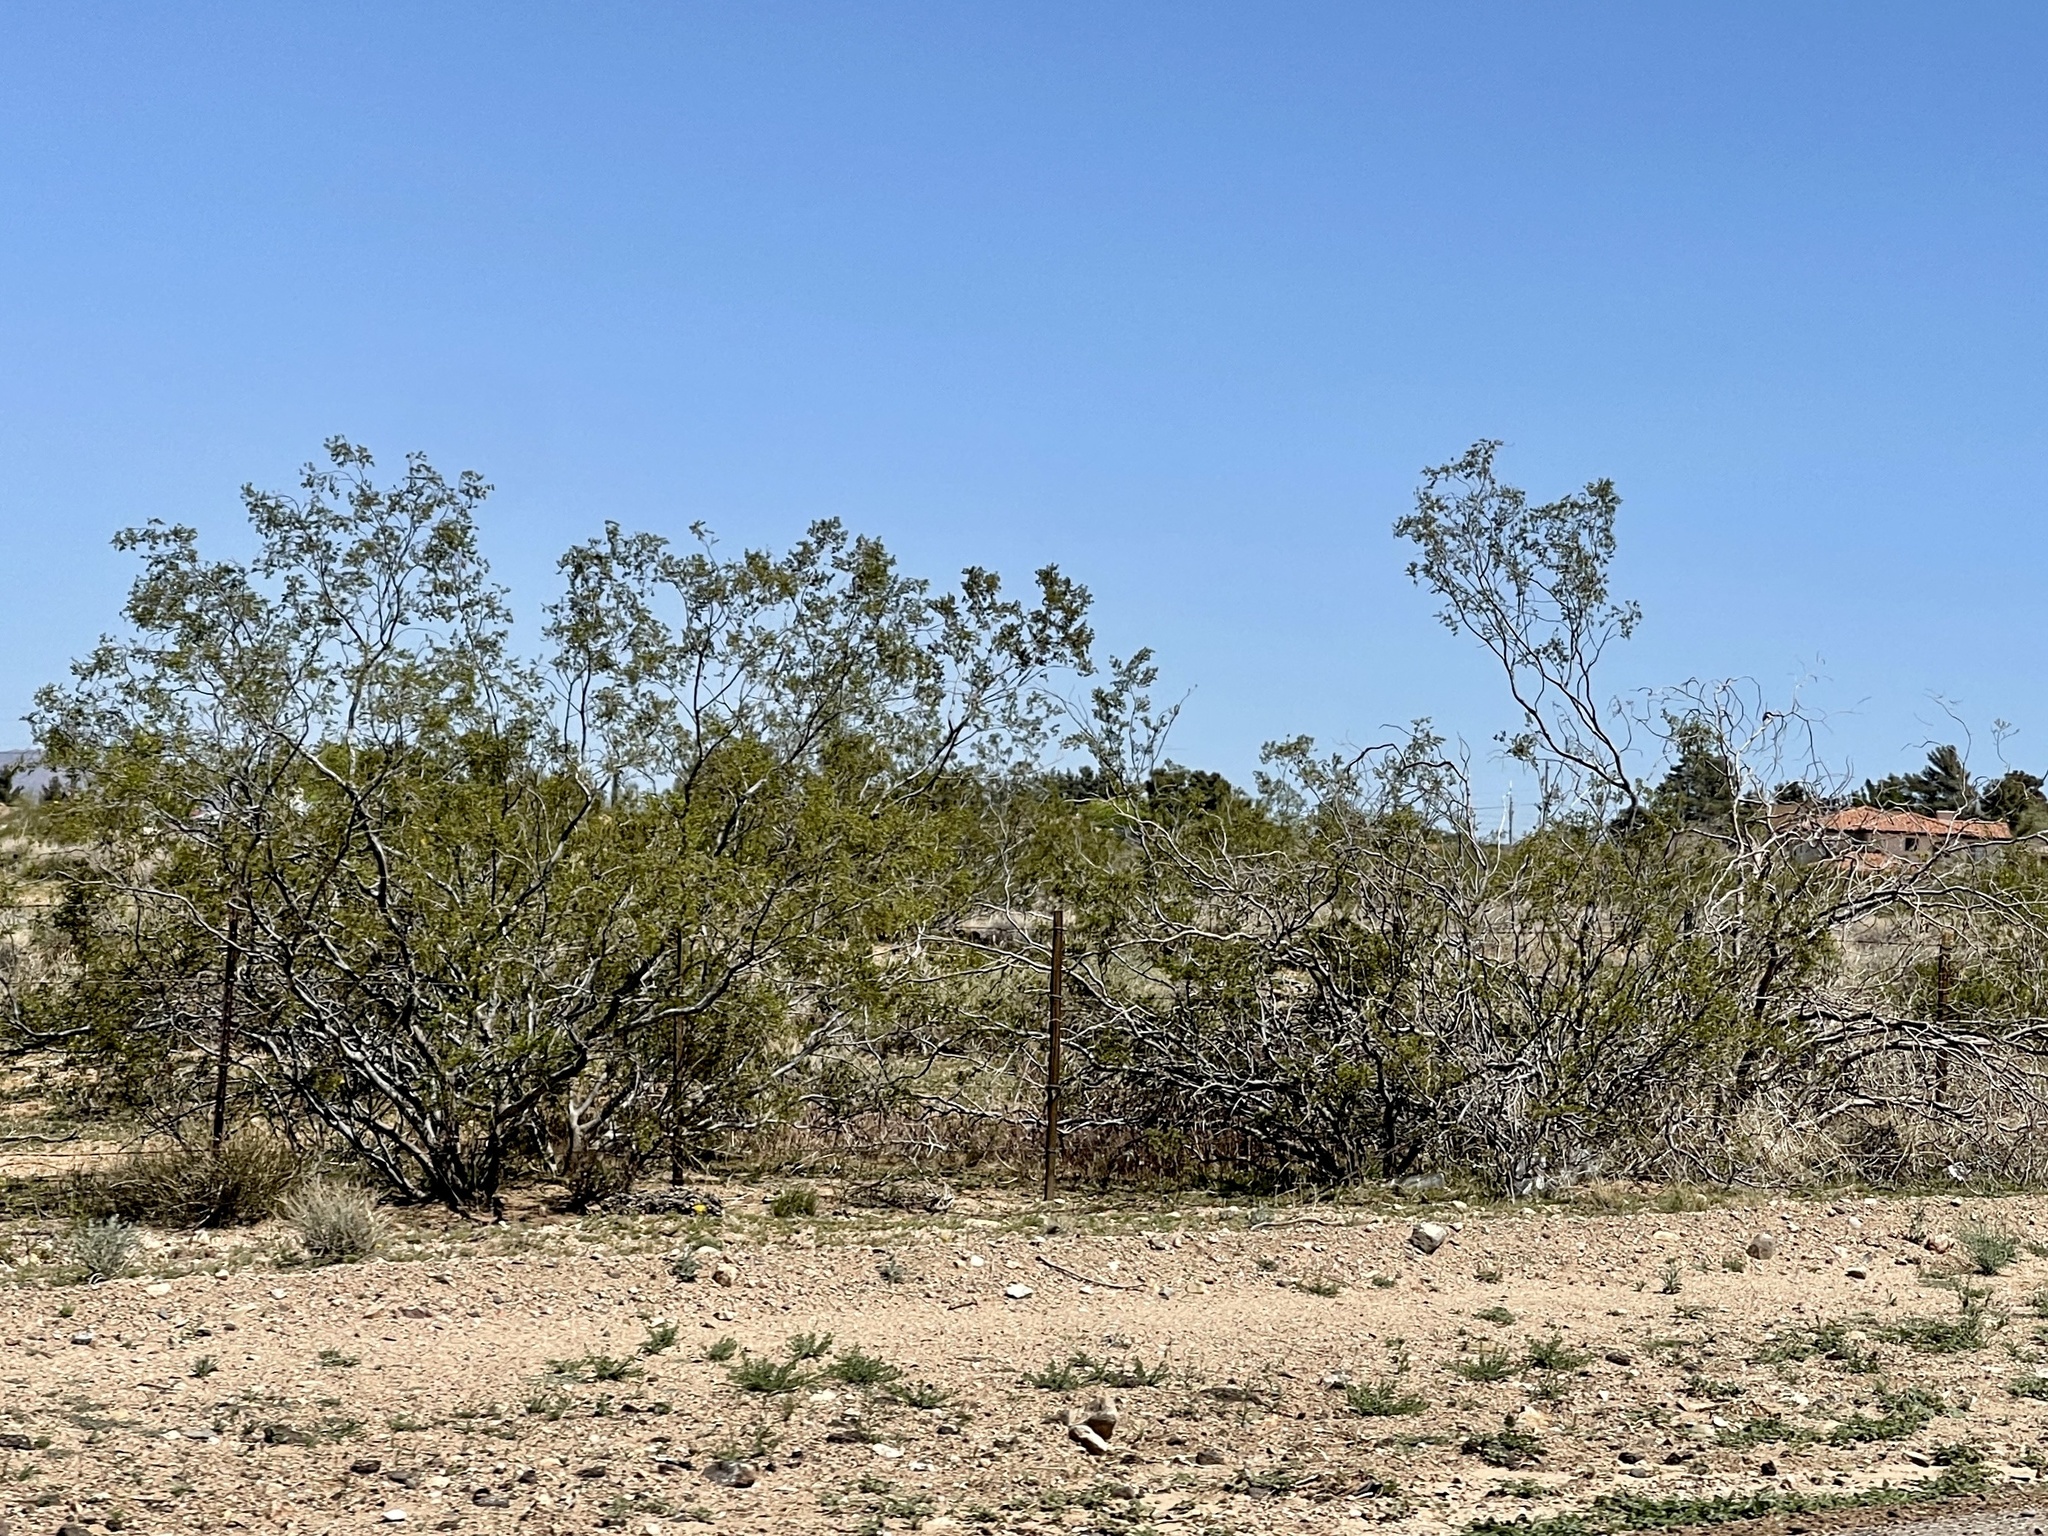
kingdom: Plantae
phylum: Tracheophyta
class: Magnoliopsida
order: Zygophyllales
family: Zygophyllaceae
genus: Larrea
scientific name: Larrea tridentata
